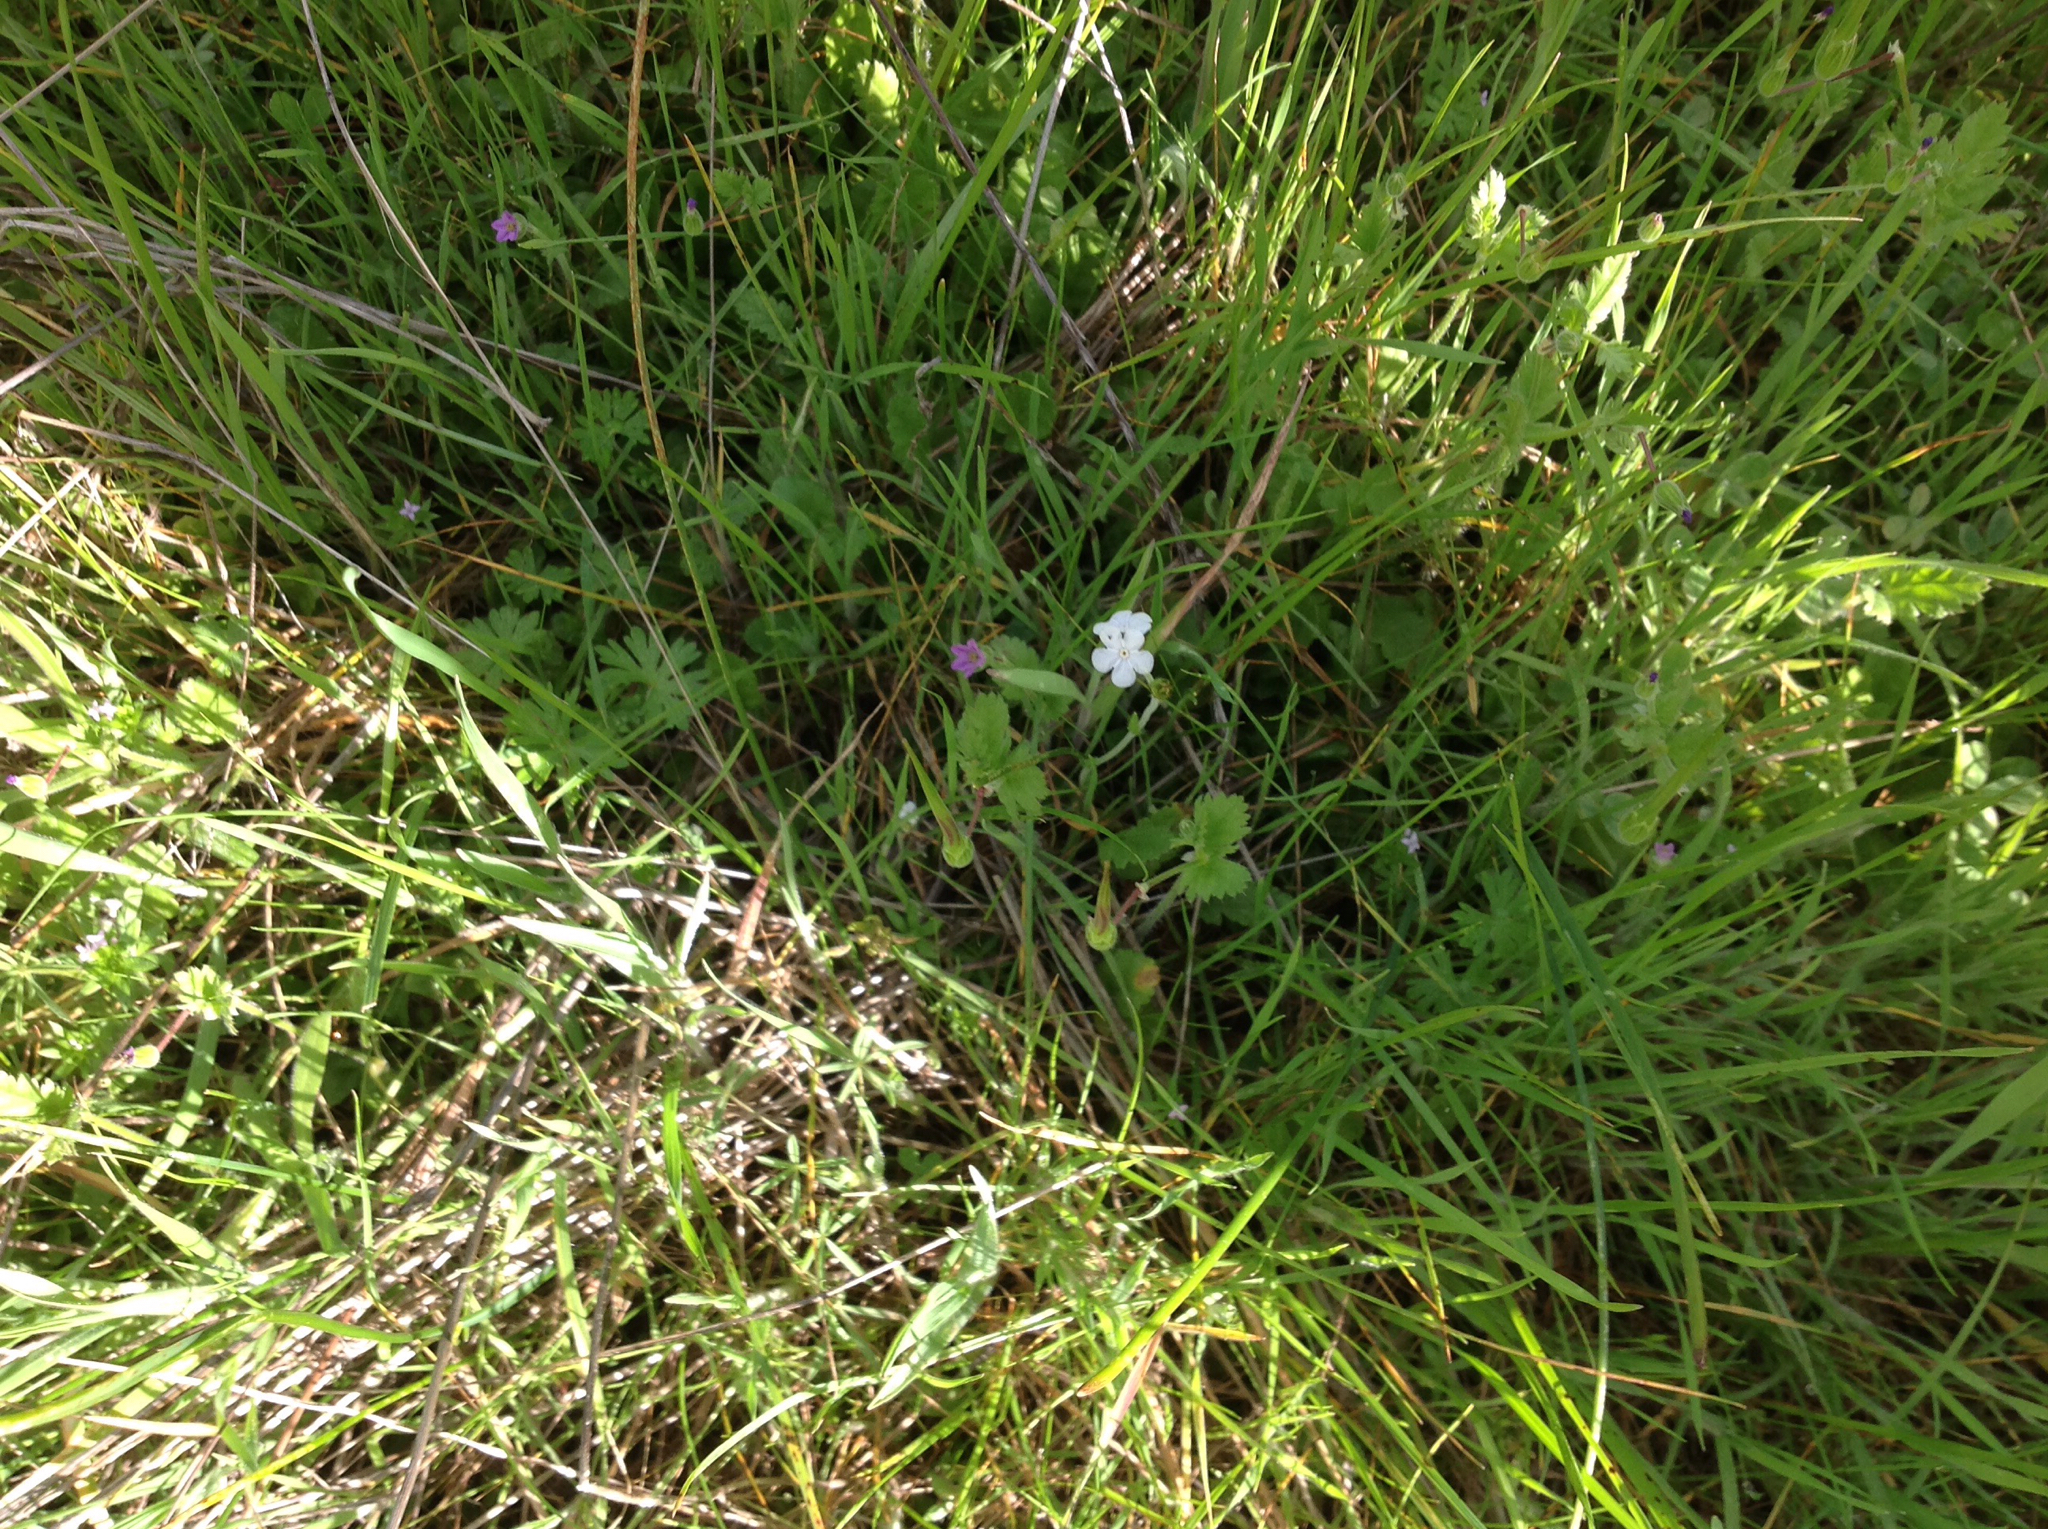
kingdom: Plantae
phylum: Tracheophyta
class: Magnoliopsida
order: Boraginales
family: Boraginaceae
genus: Plagiobothrys
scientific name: Plagiobothrys nothofulvus
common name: Popcorn-flower
